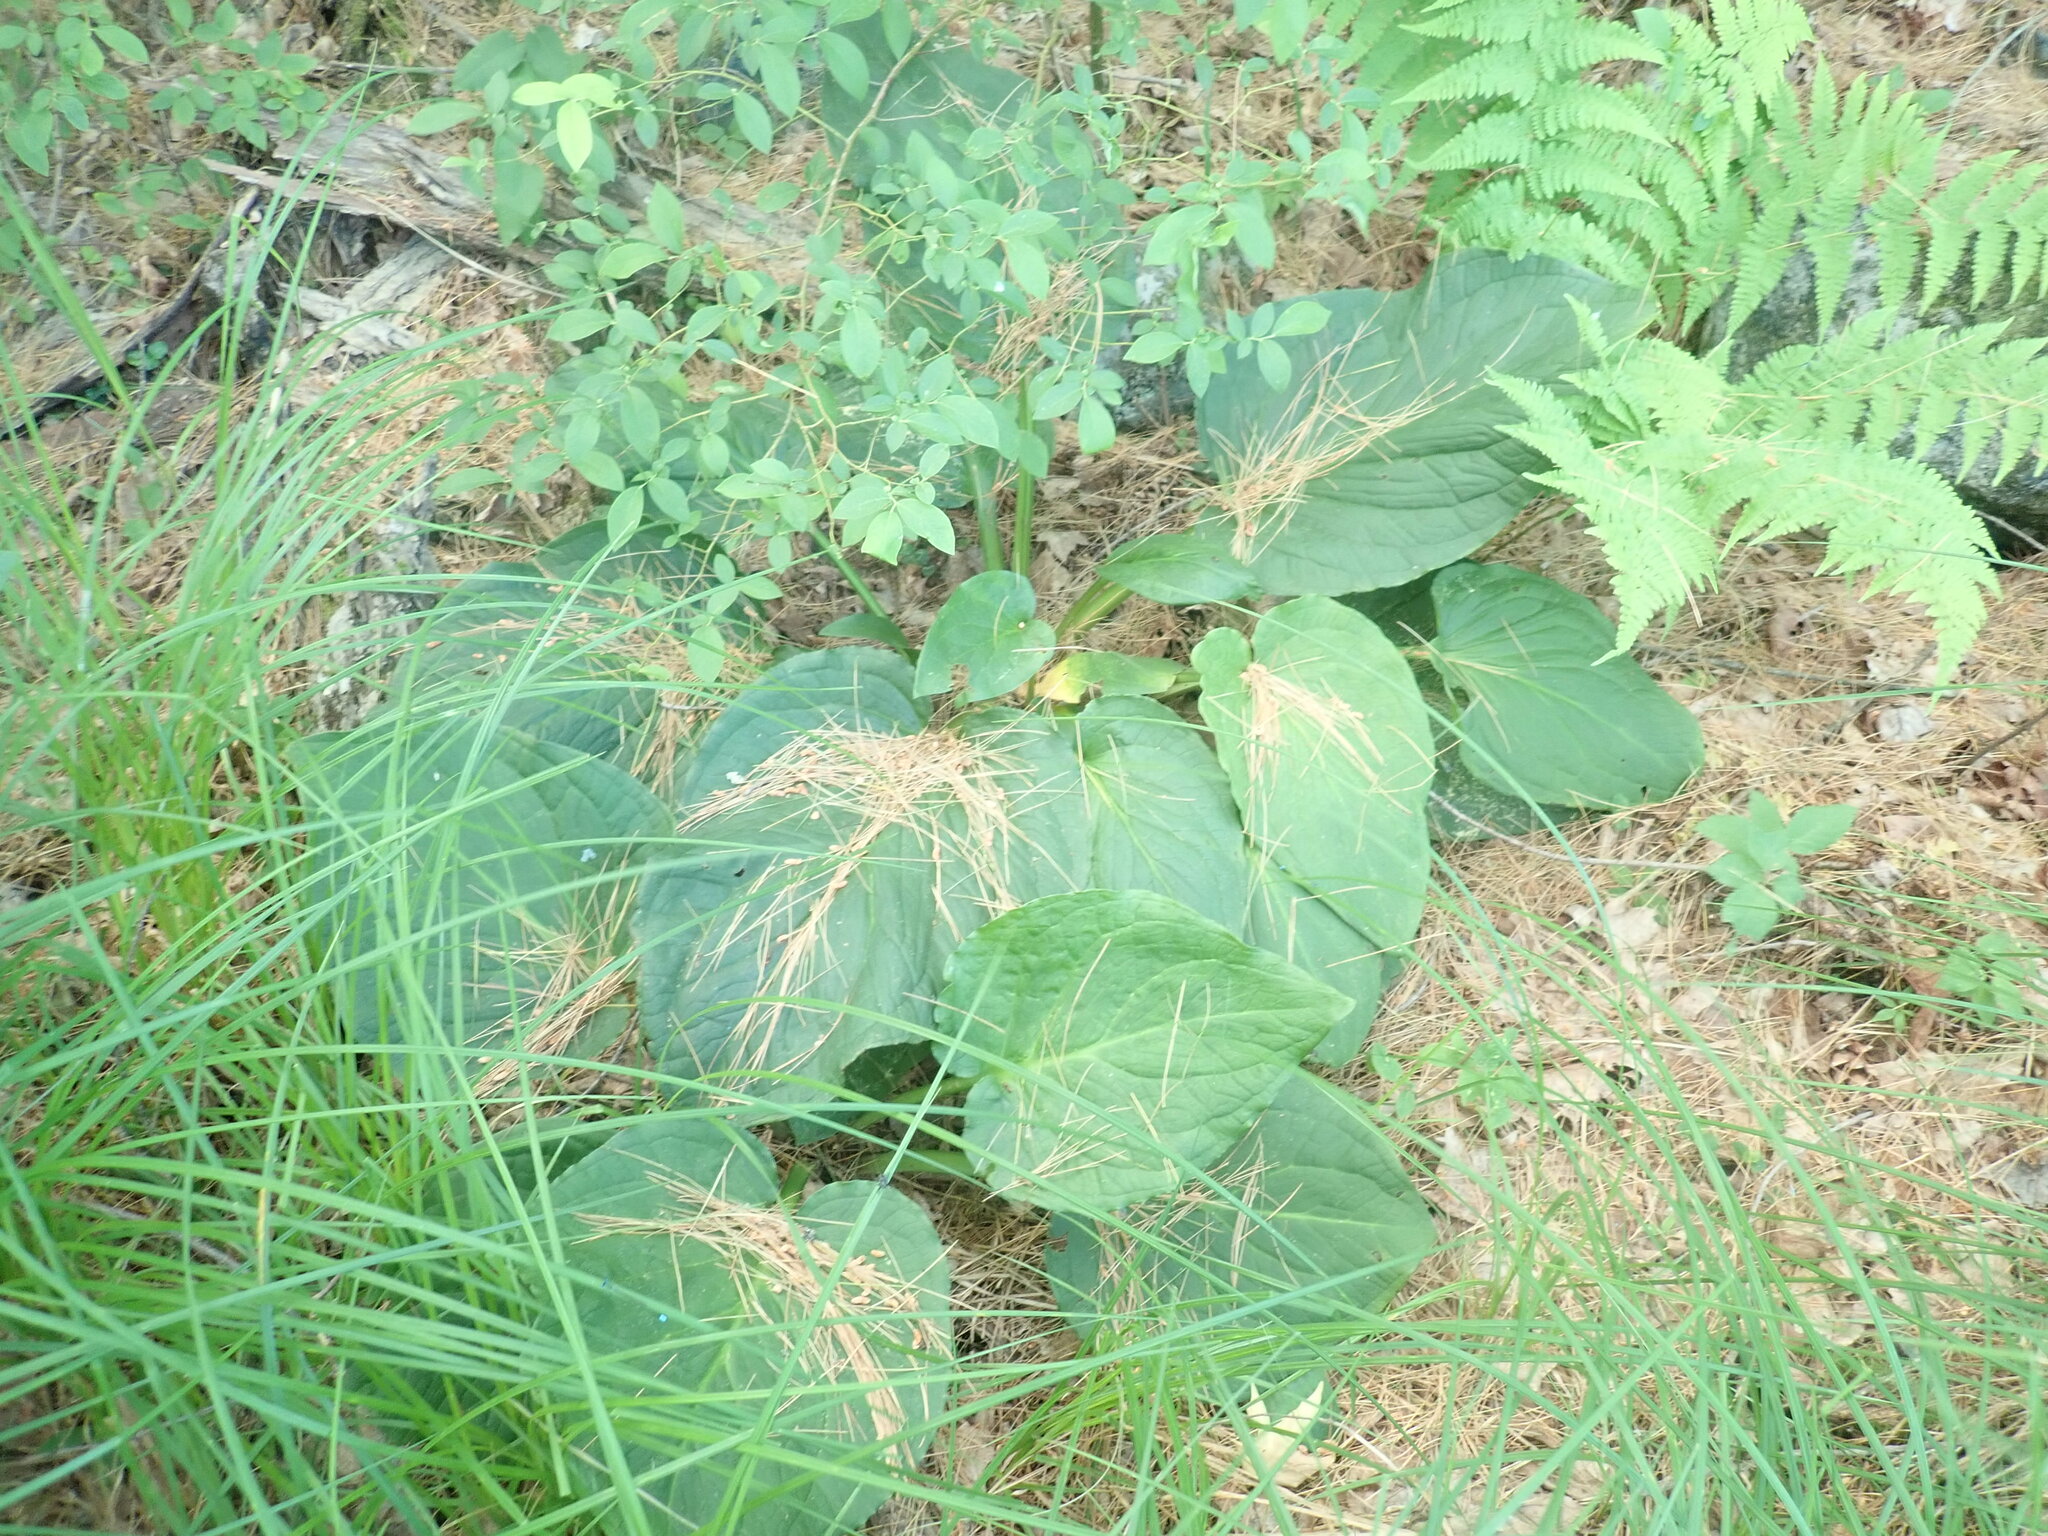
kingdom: Plantae
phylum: Tracheophyta
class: Liliopsida
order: Alismatales
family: Araceae
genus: Symplocarpus
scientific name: Symplocarpus foetidus
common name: Eastern skunk cabbage
